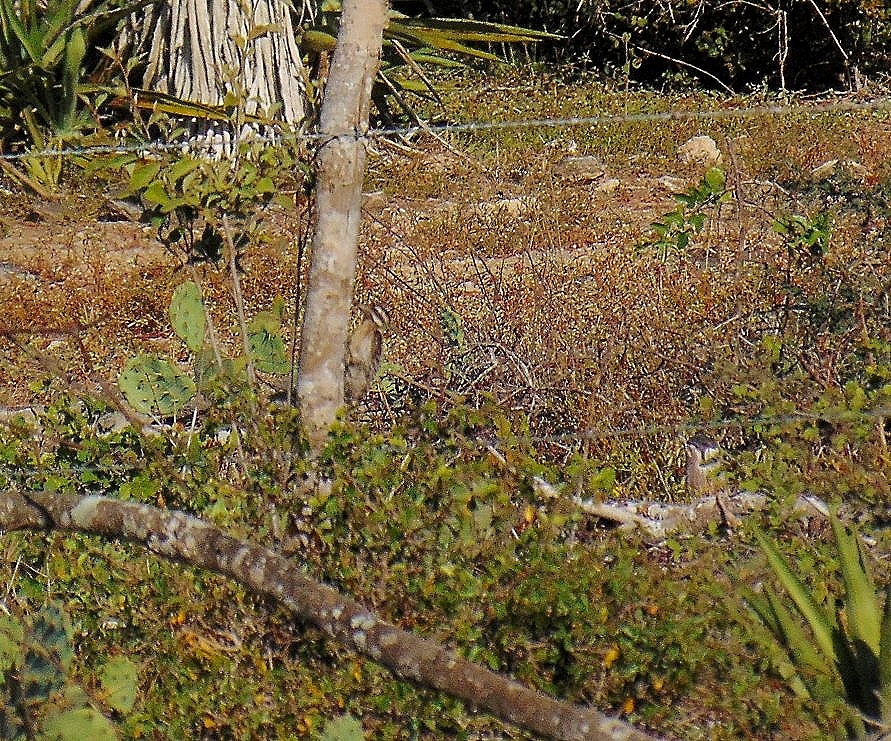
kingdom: Animalia
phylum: Chordata
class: Aves
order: Piciformes
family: Picidae
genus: Dryobates
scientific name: Dryobates scalaris
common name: Ladder-backed woodpecker
